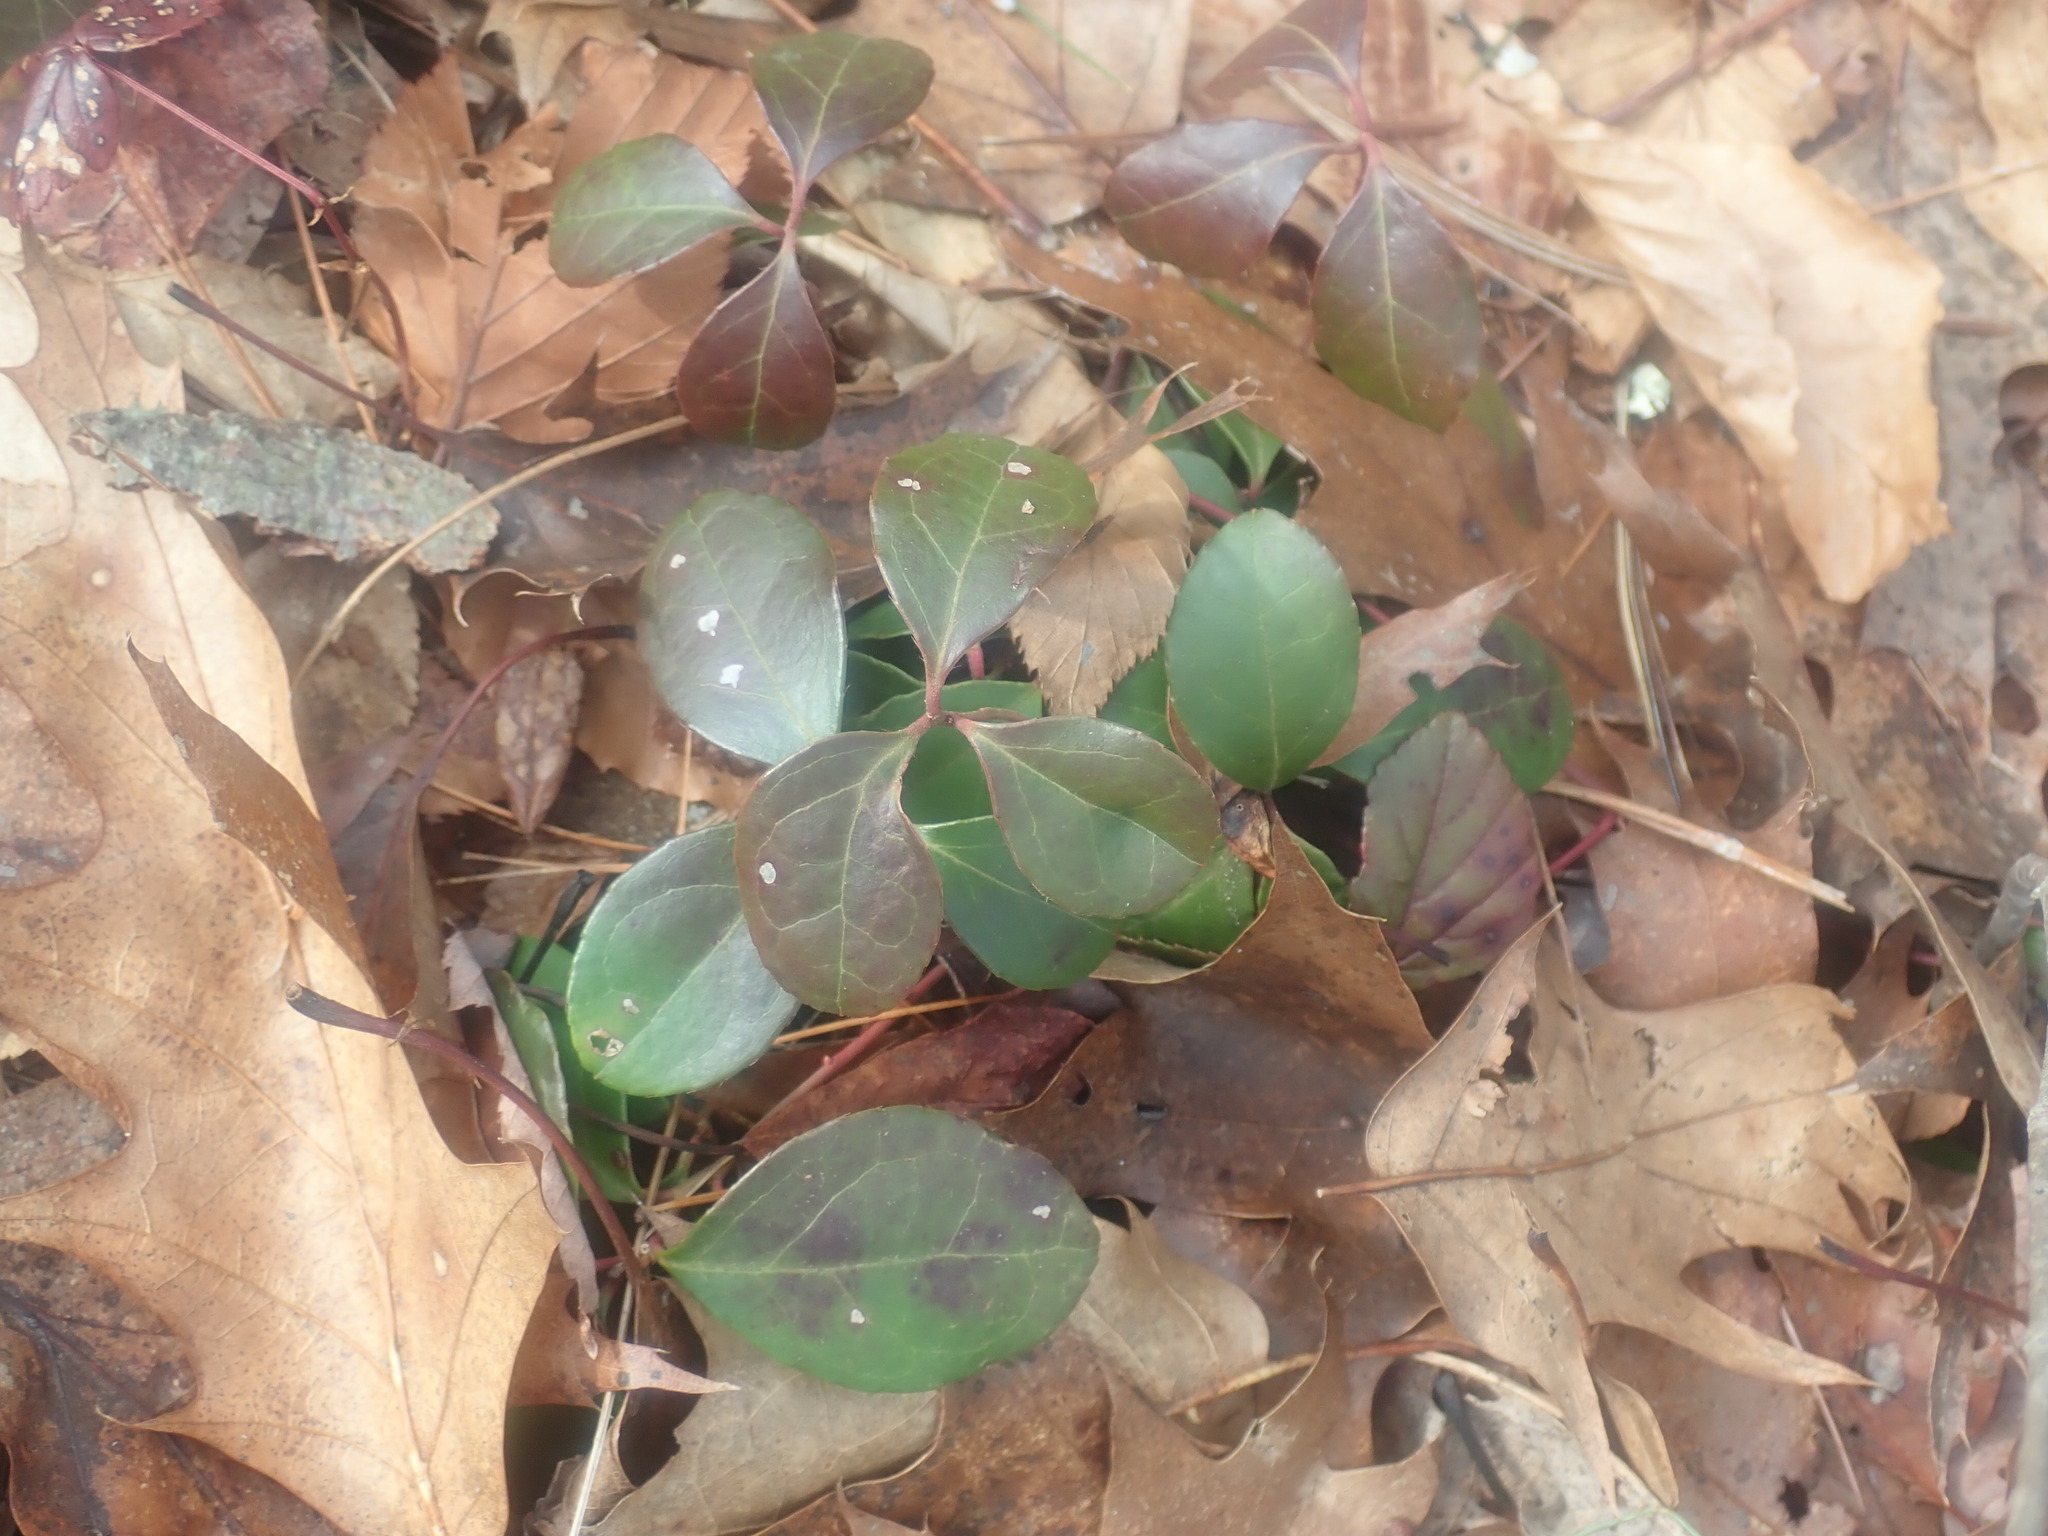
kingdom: Plantae
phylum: Tracheophyta
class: Magnoliopsida
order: Ericales
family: Ericaceae
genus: Gaultheria
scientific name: Gaultheria procumbens
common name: Checkerberry
